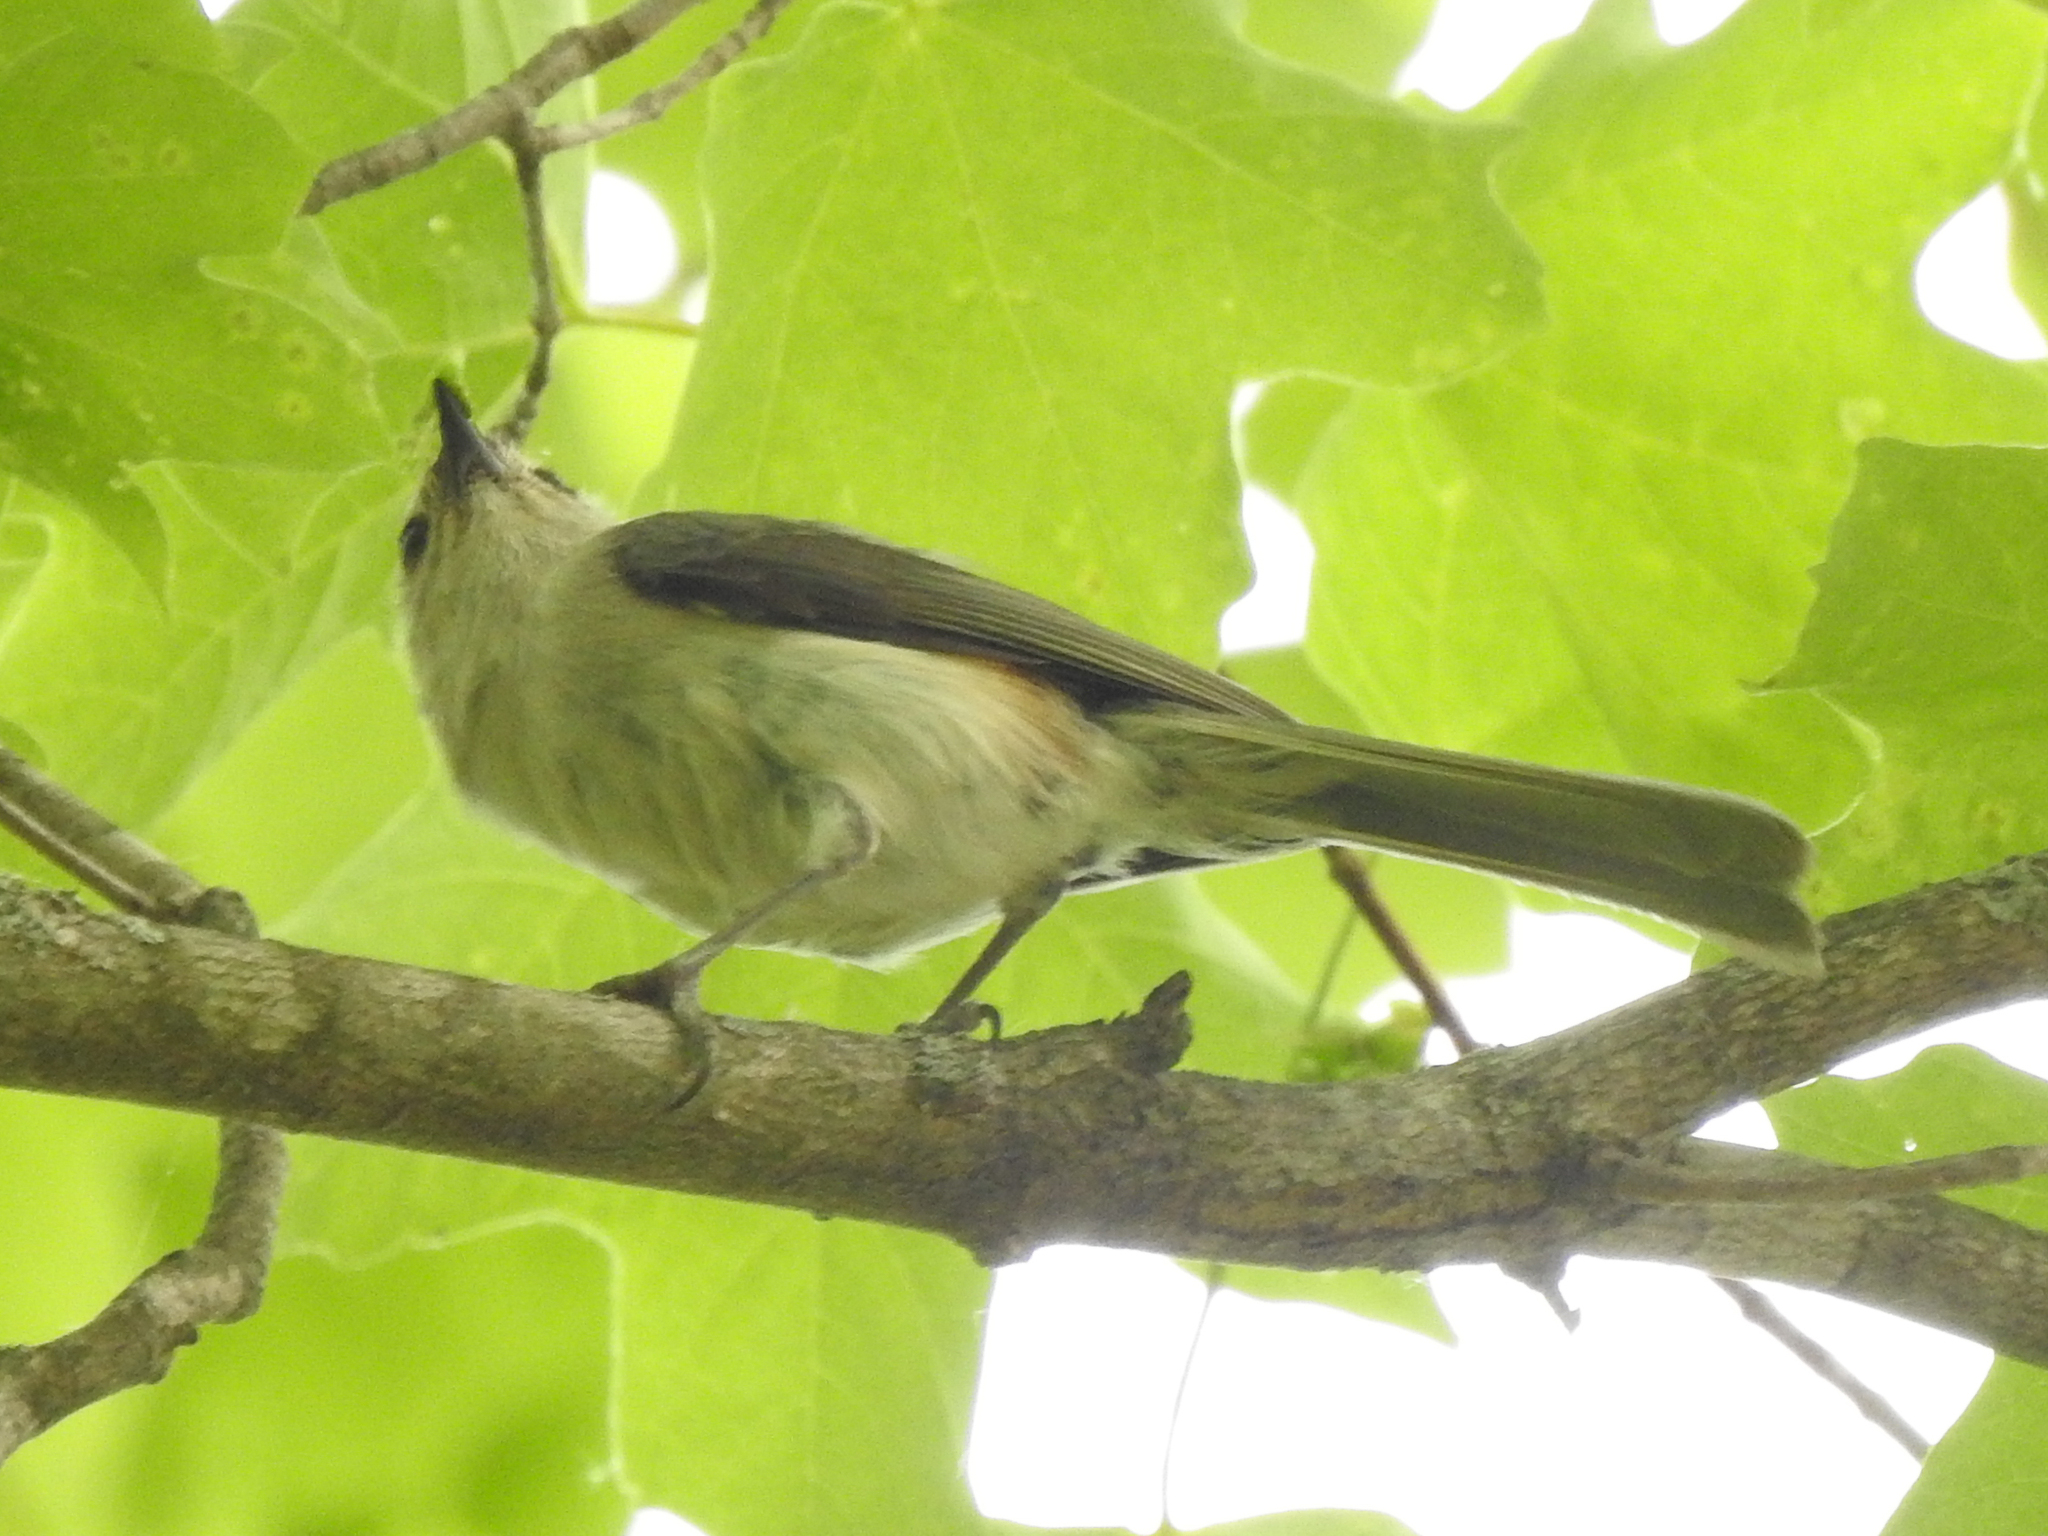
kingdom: Animalia
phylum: Chordata
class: Aves
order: Passeriformes
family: Paridae
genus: Baeolophus
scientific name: Baeolophus bicolor
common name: Tufted titmouse
